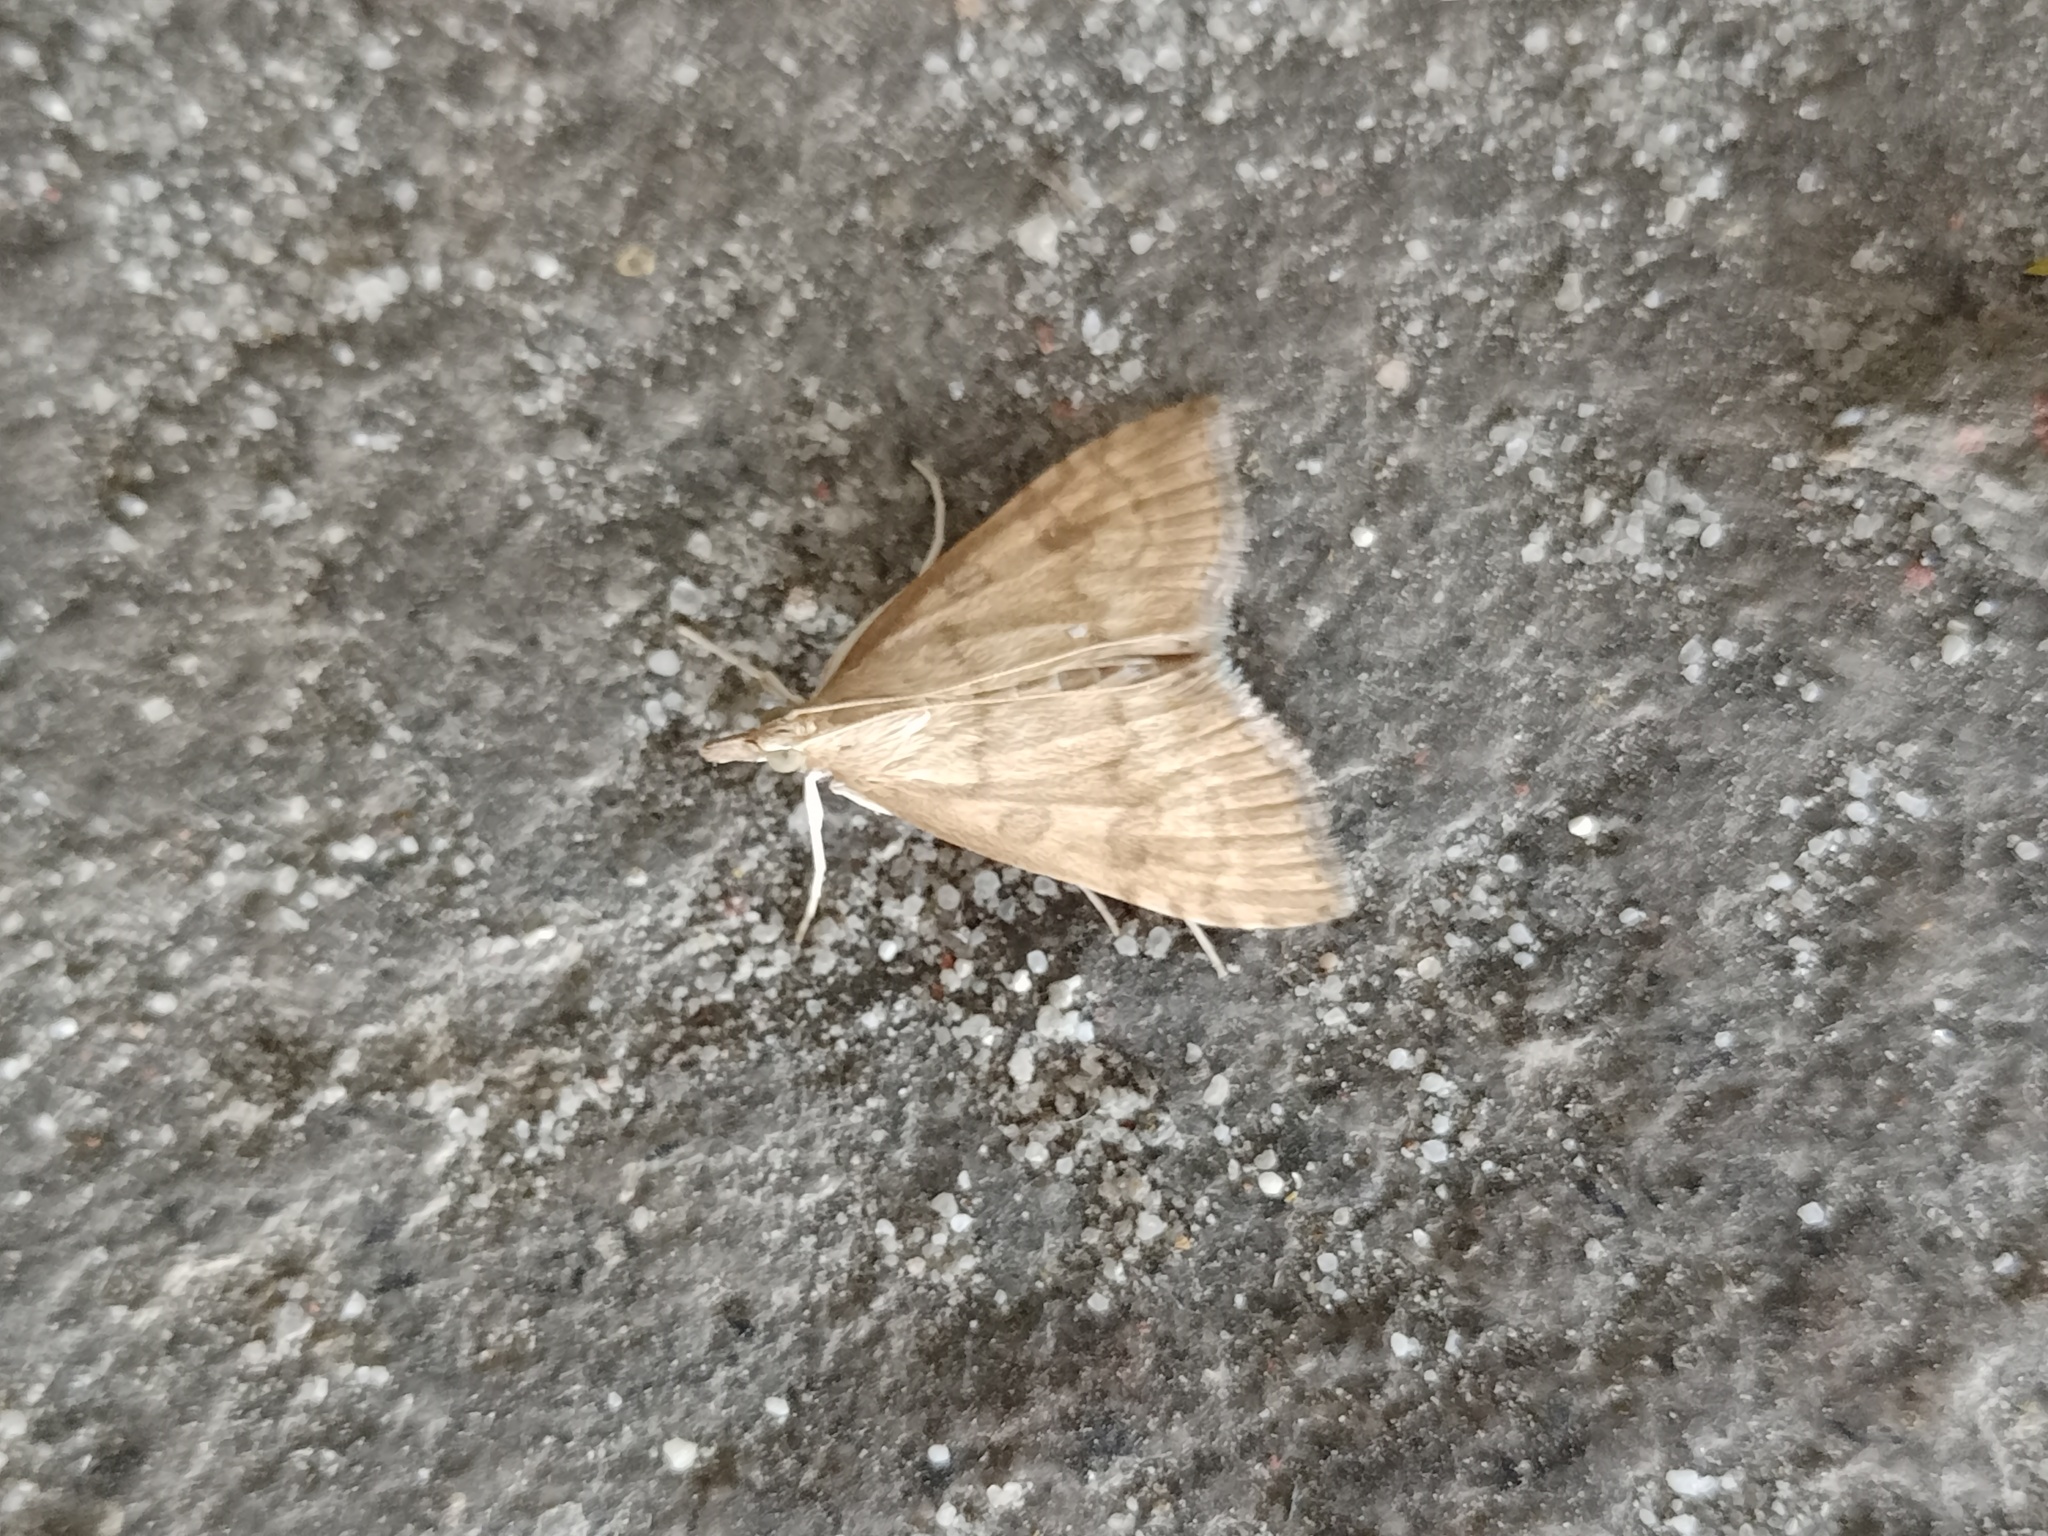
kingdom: Animalia
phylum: Arthropoda
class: Insecta
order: Lepidoptera
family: Crambidae
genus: Udea
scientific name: Udea fulvalis
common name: Fulvous pearl
